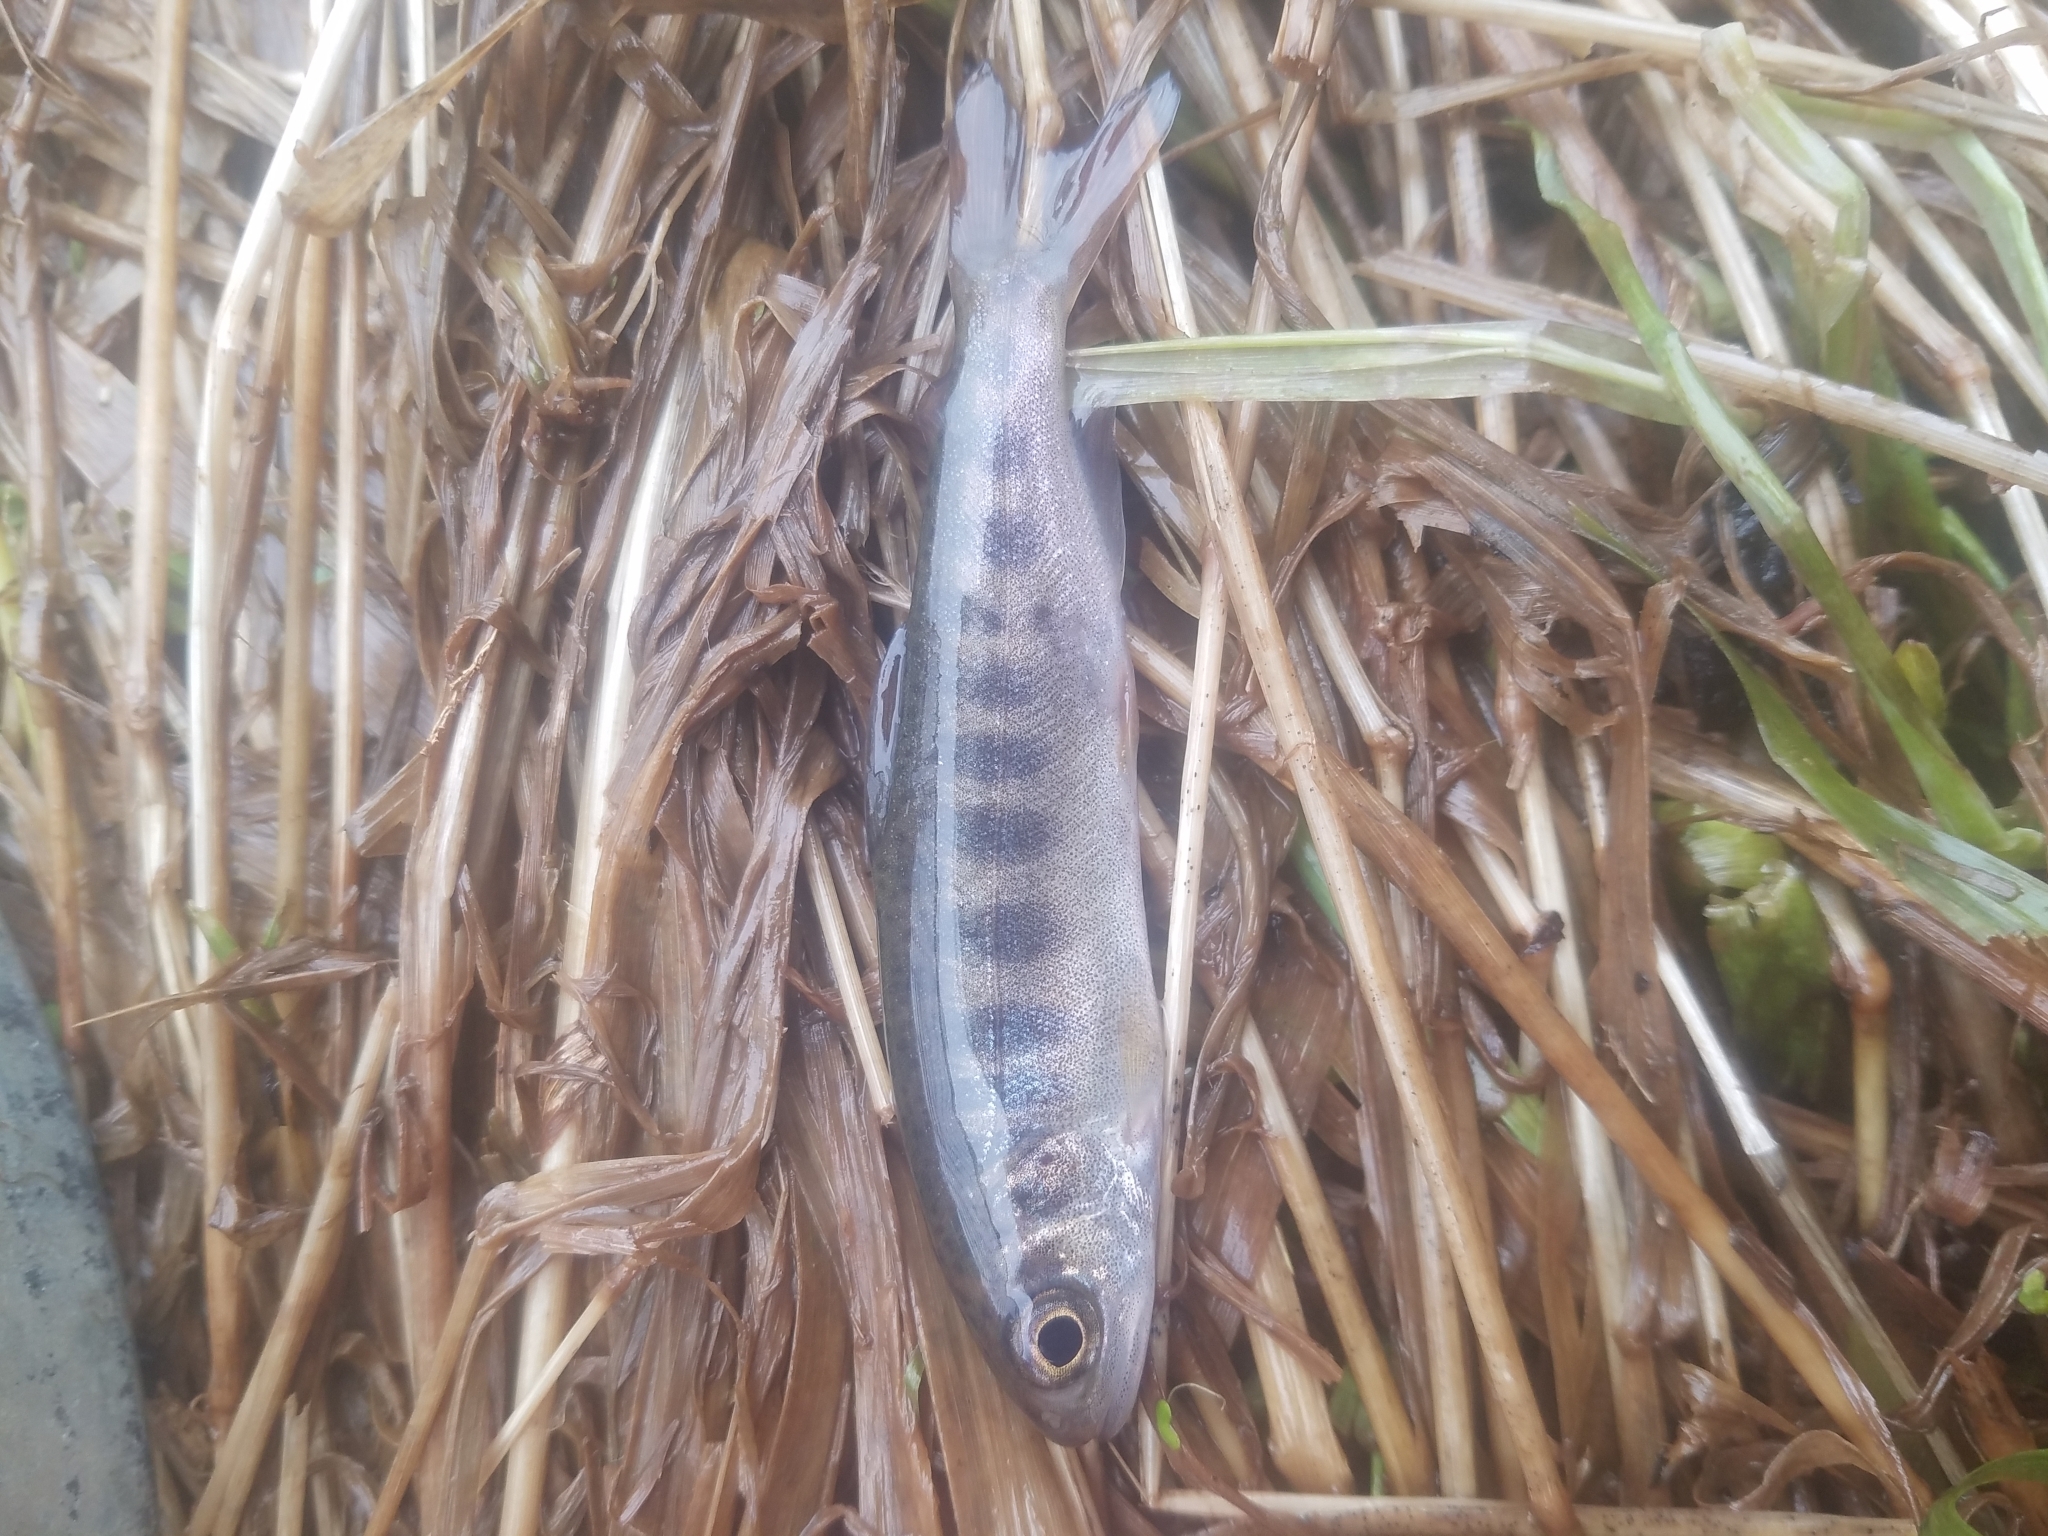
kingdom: Animalia
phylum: Chordata
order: Salmoniformes
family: Salmonidae
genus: Oncorhynchus
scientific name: Oncorhynchus kisutch
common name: Coho salmon
